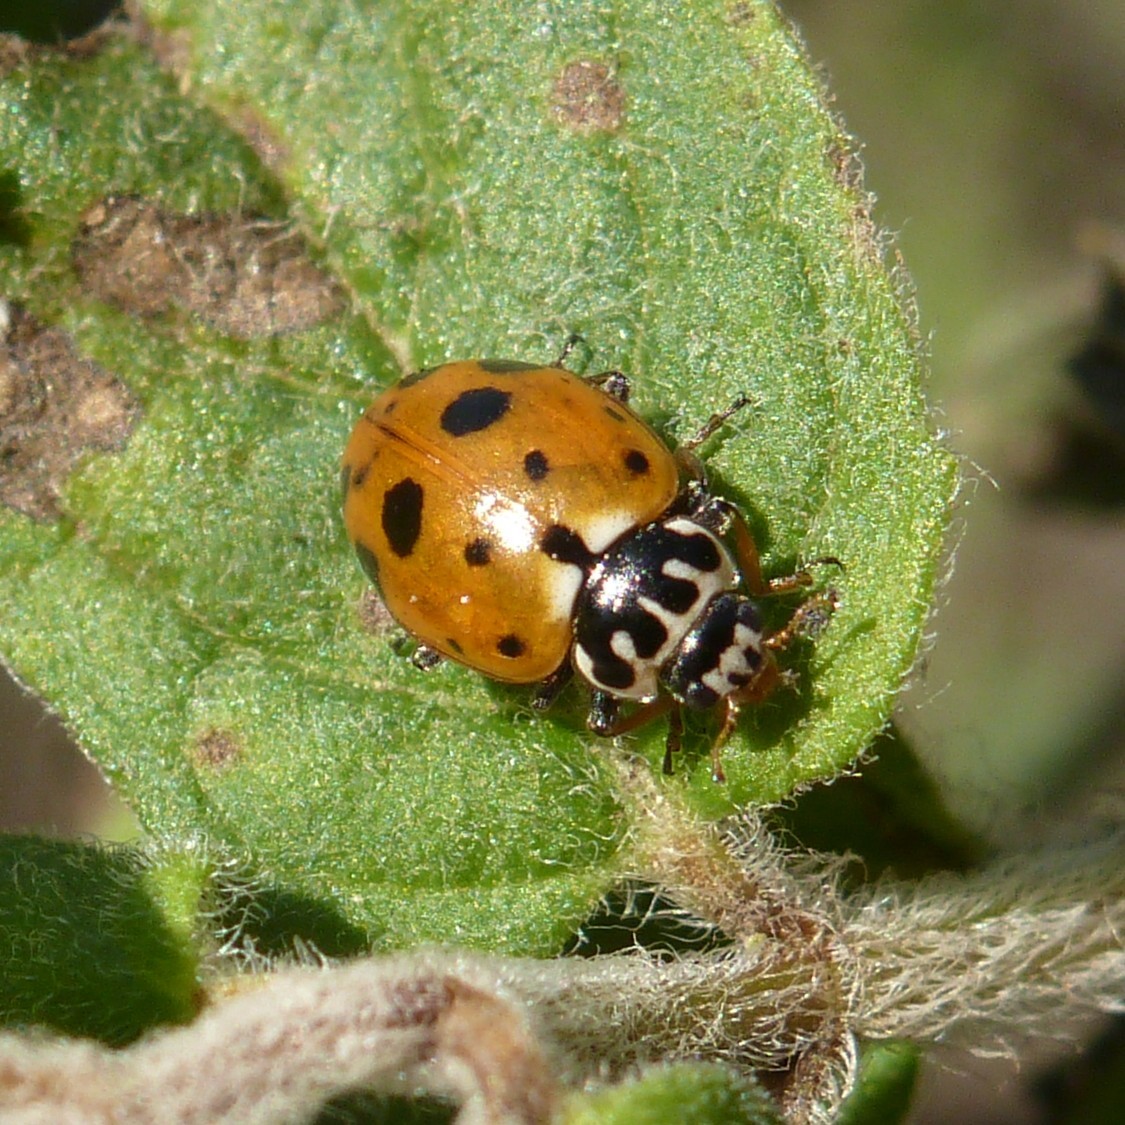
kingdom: Animalia
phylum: Arthropoda
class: Insecta
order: Coleoptera
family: Coccinellidae
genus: Hippodamia
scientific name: Hippodamia variegata
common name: Ladybird beetle
